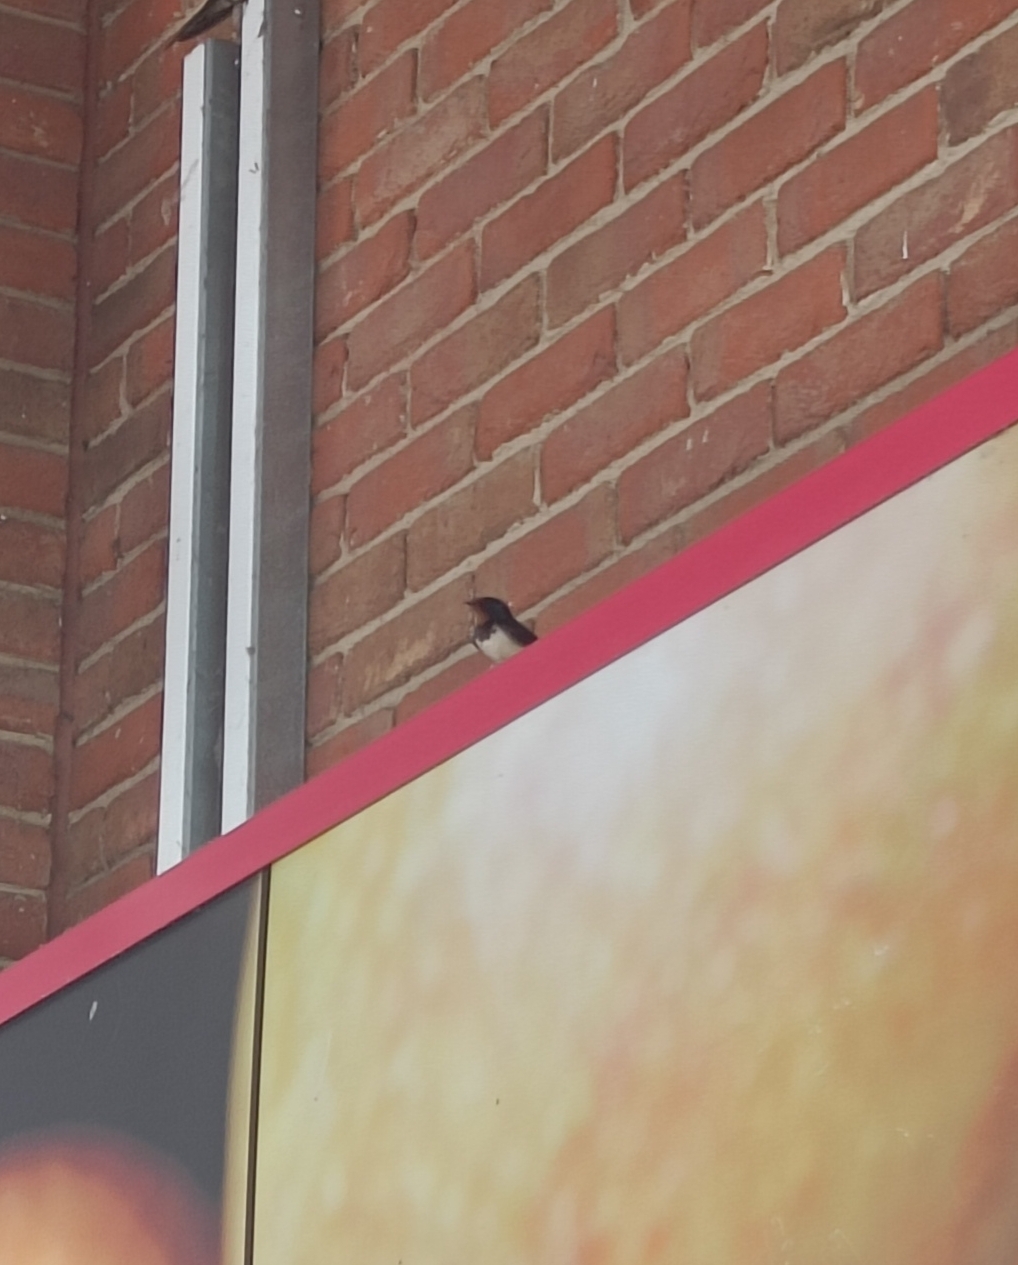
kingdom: Animalia
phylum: Chordata
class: Aves
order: Passeriformes
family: Hirundinidae
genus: Hirundo
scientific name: Hirundo rustica
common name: Barn swallow
